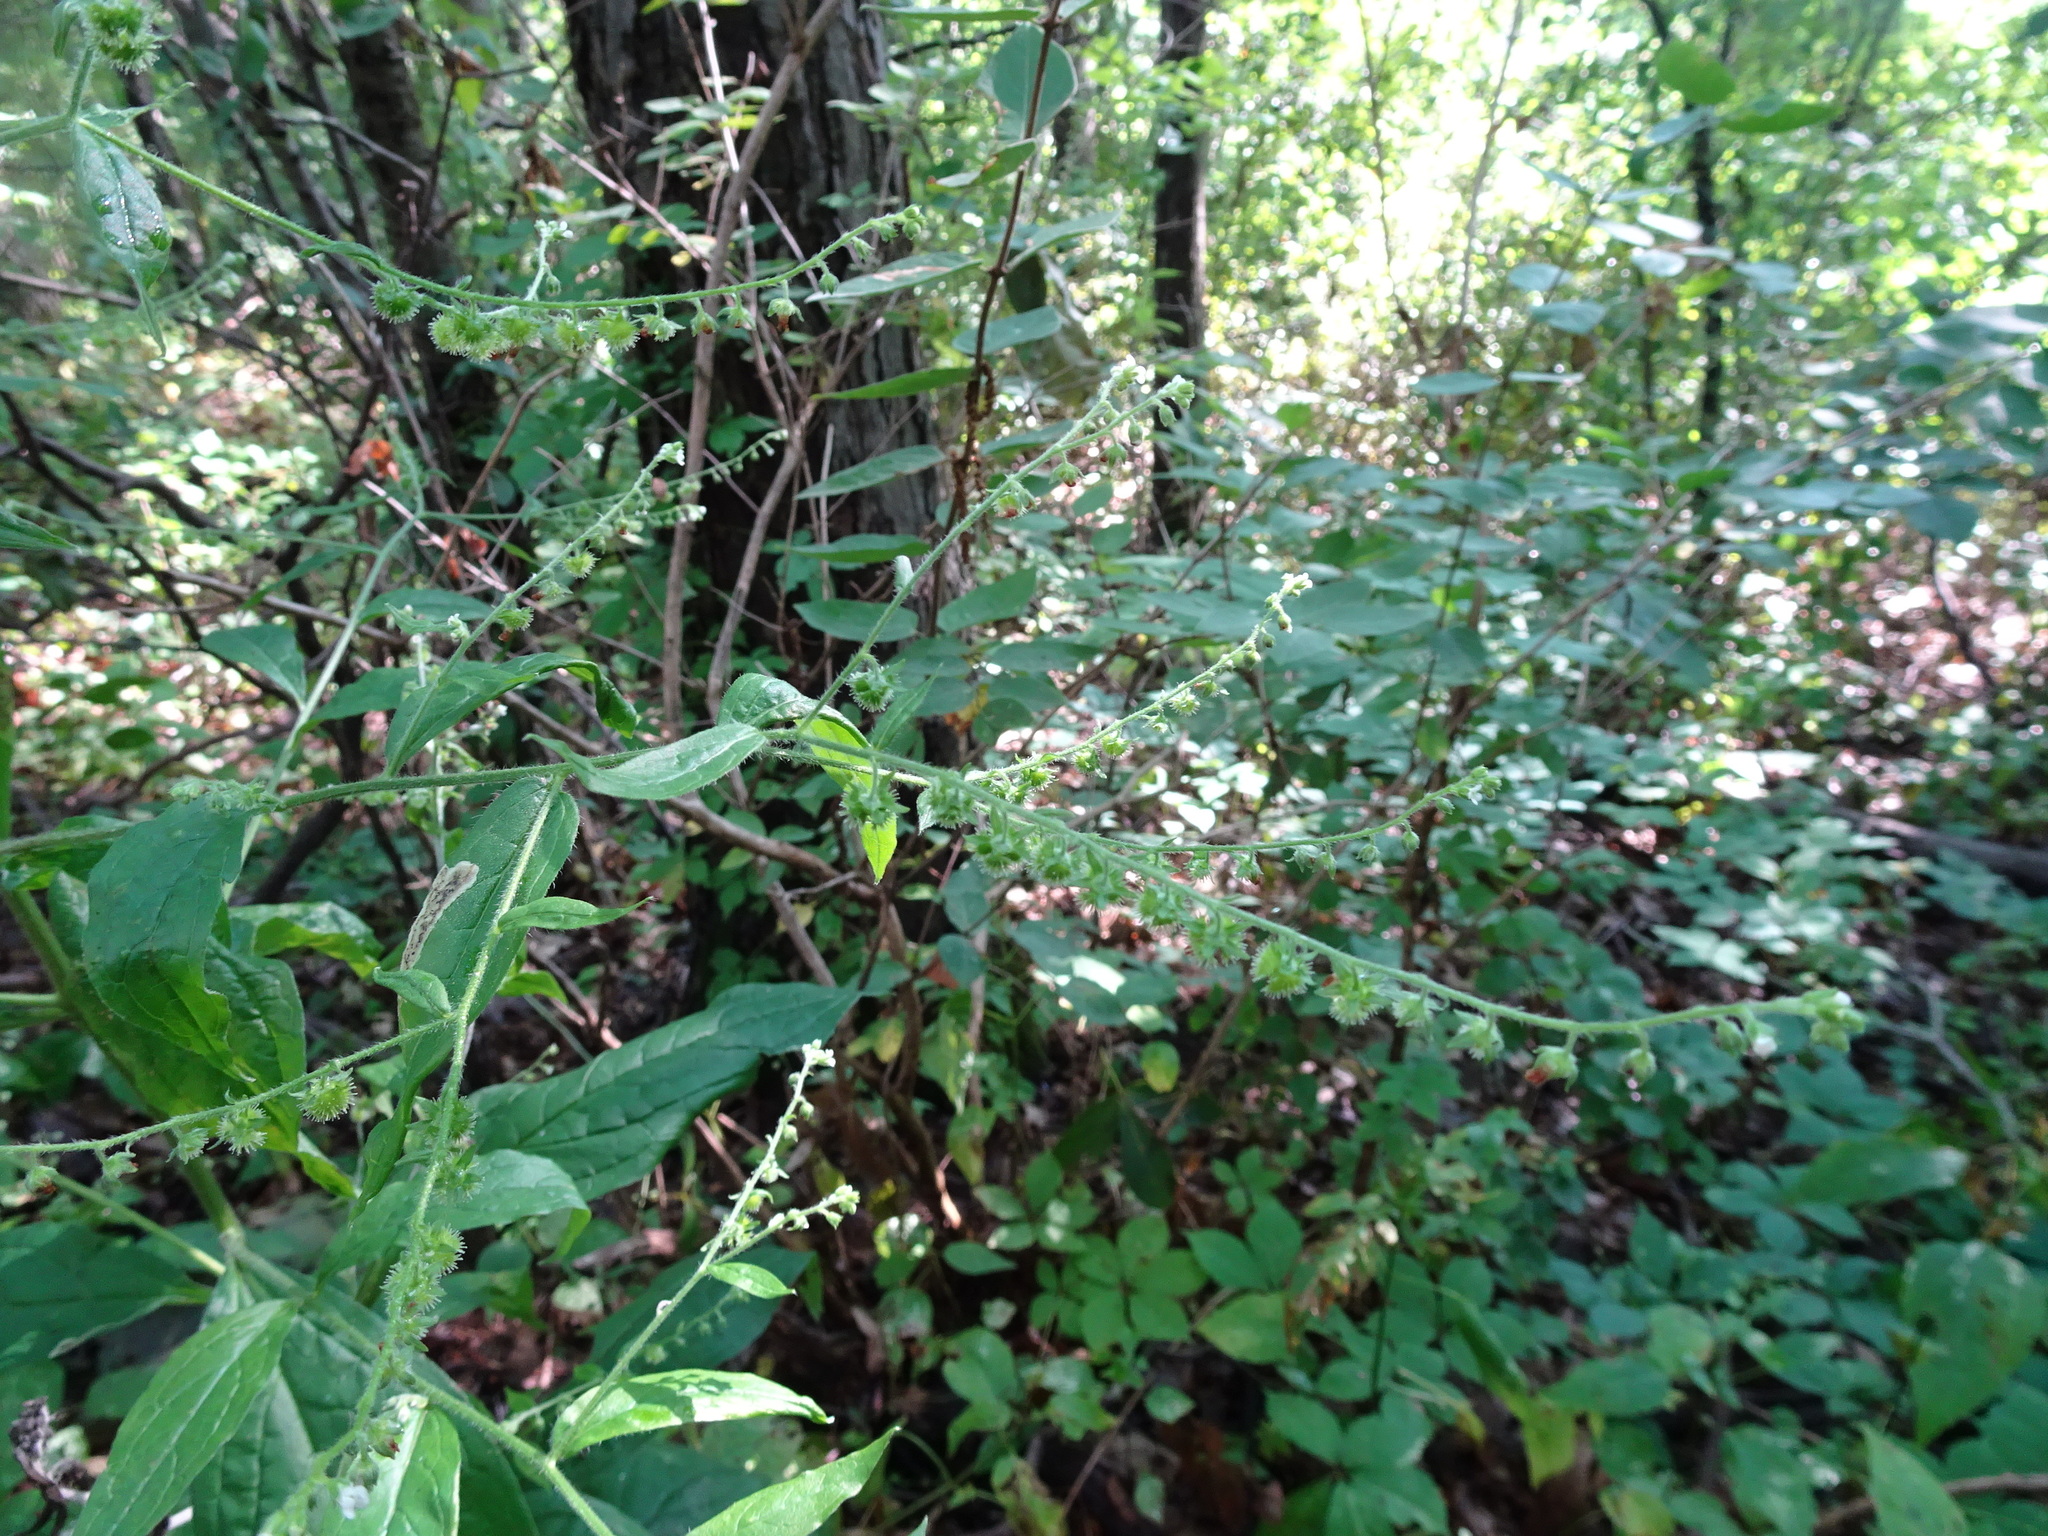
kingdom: Plantae
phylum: Tracheophyta
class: Magnoliopsida
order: Boraginales
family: Boraginaceae
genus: Hackelia
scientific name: Hackelia virginiana
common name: Beggar's-lice
